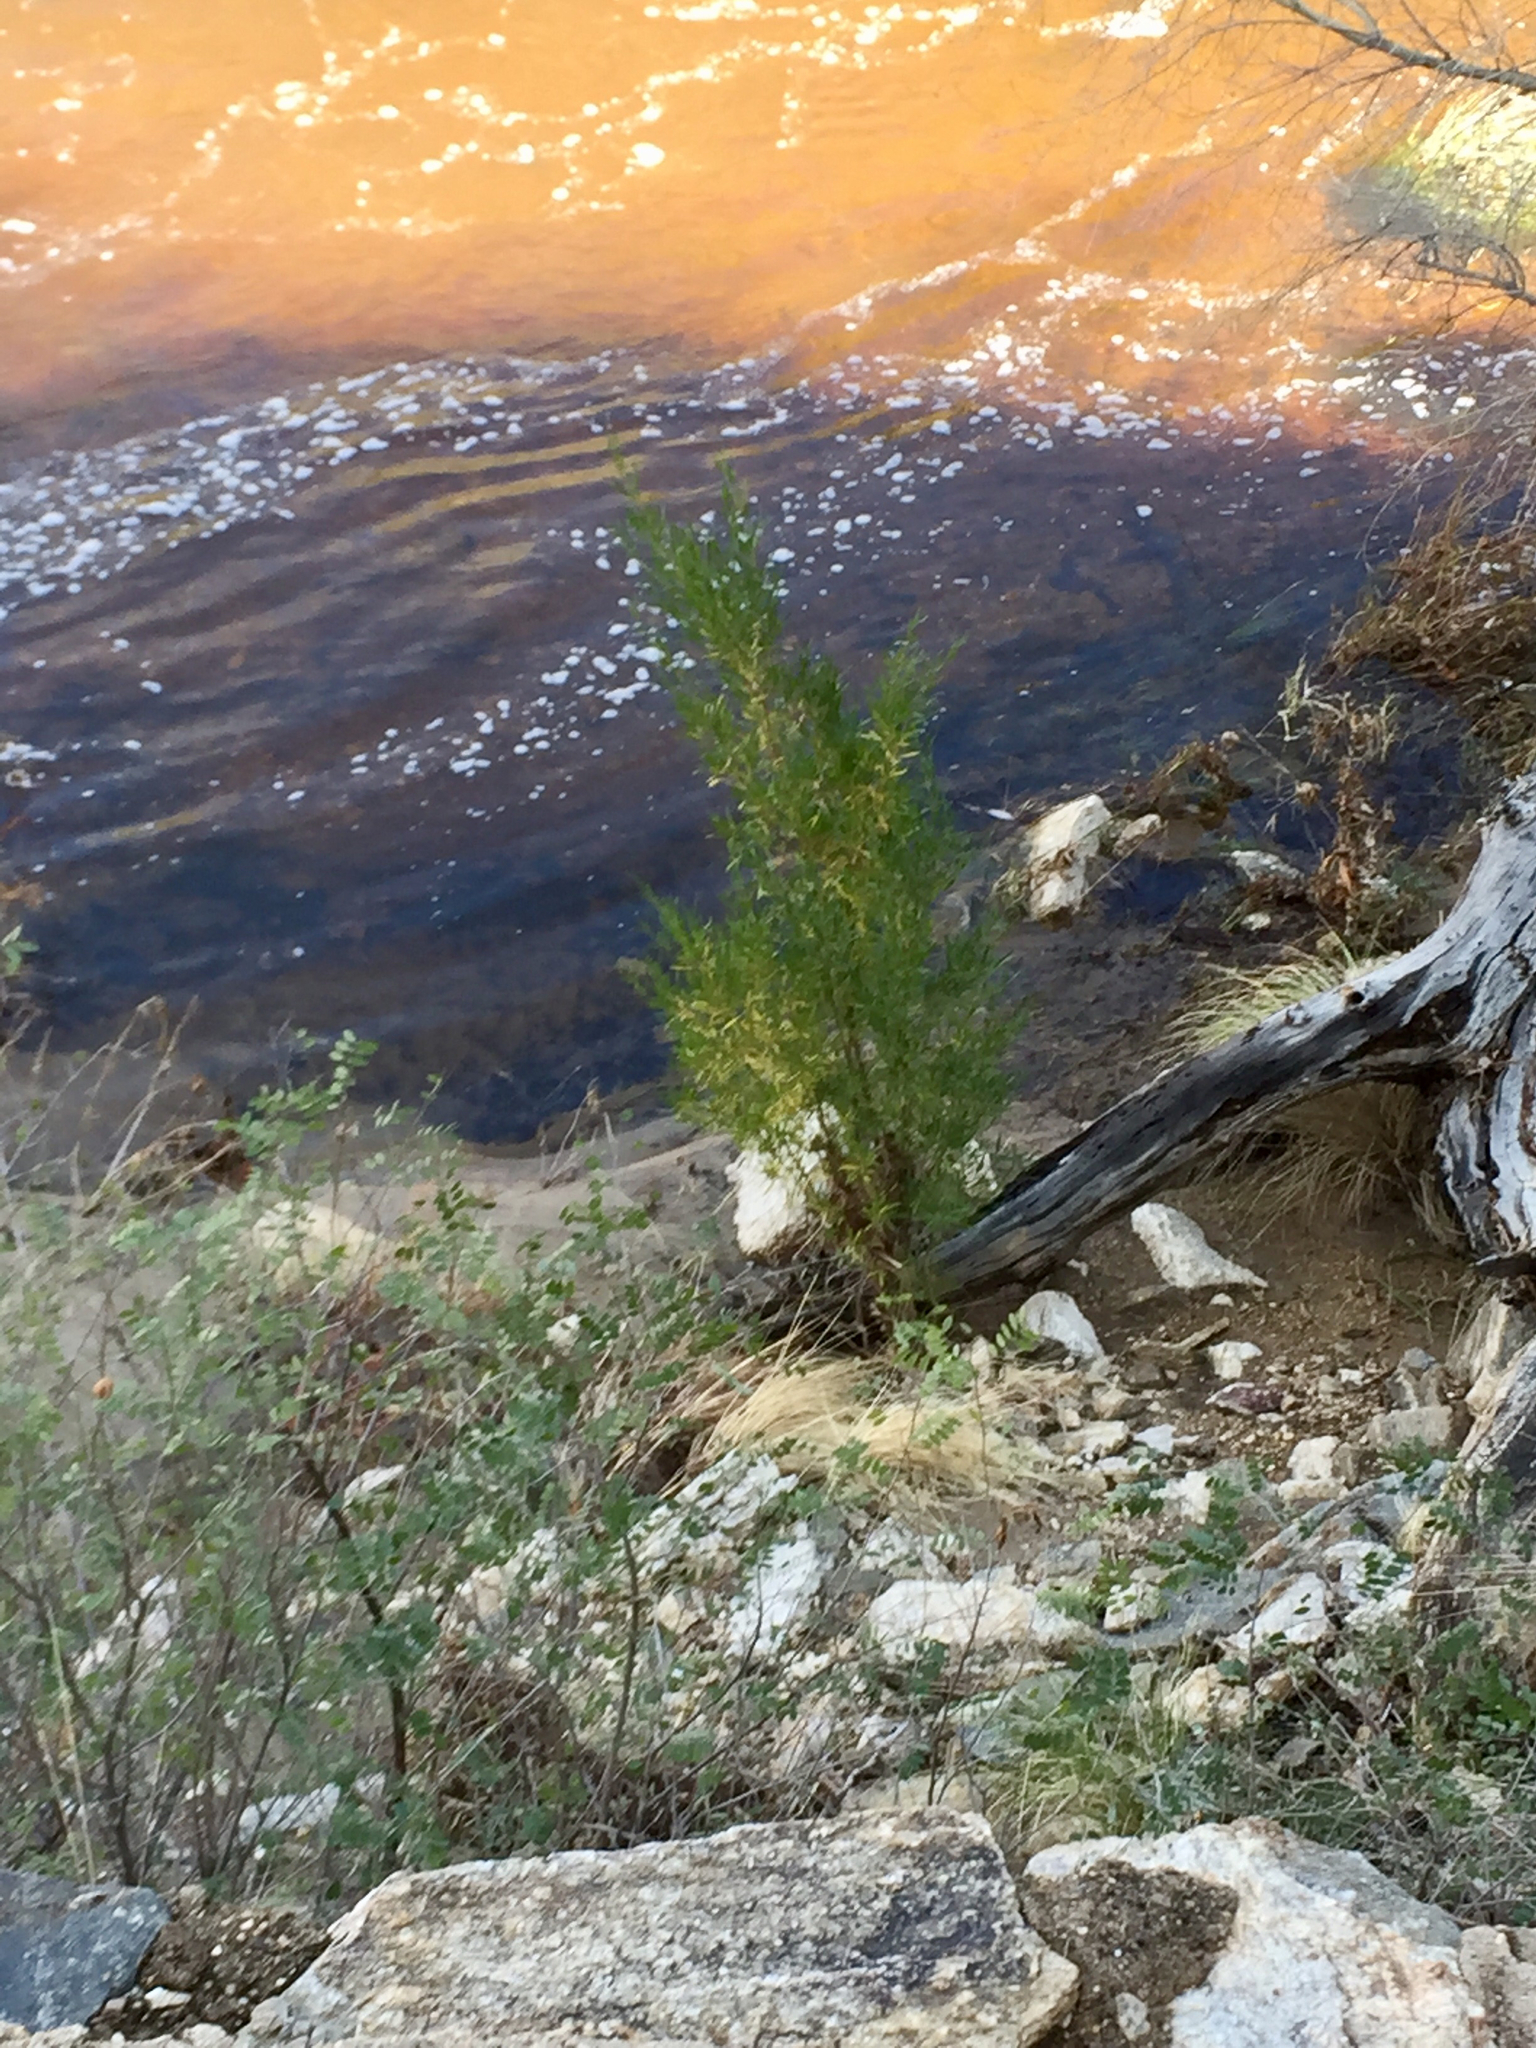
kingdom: Plantae
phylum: Tracheophyta
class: Magnoliopsida
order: Sapindales
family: Sapindaceae
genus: Dodonaea
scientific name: Dodonaea viscosa
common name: Hopbush
